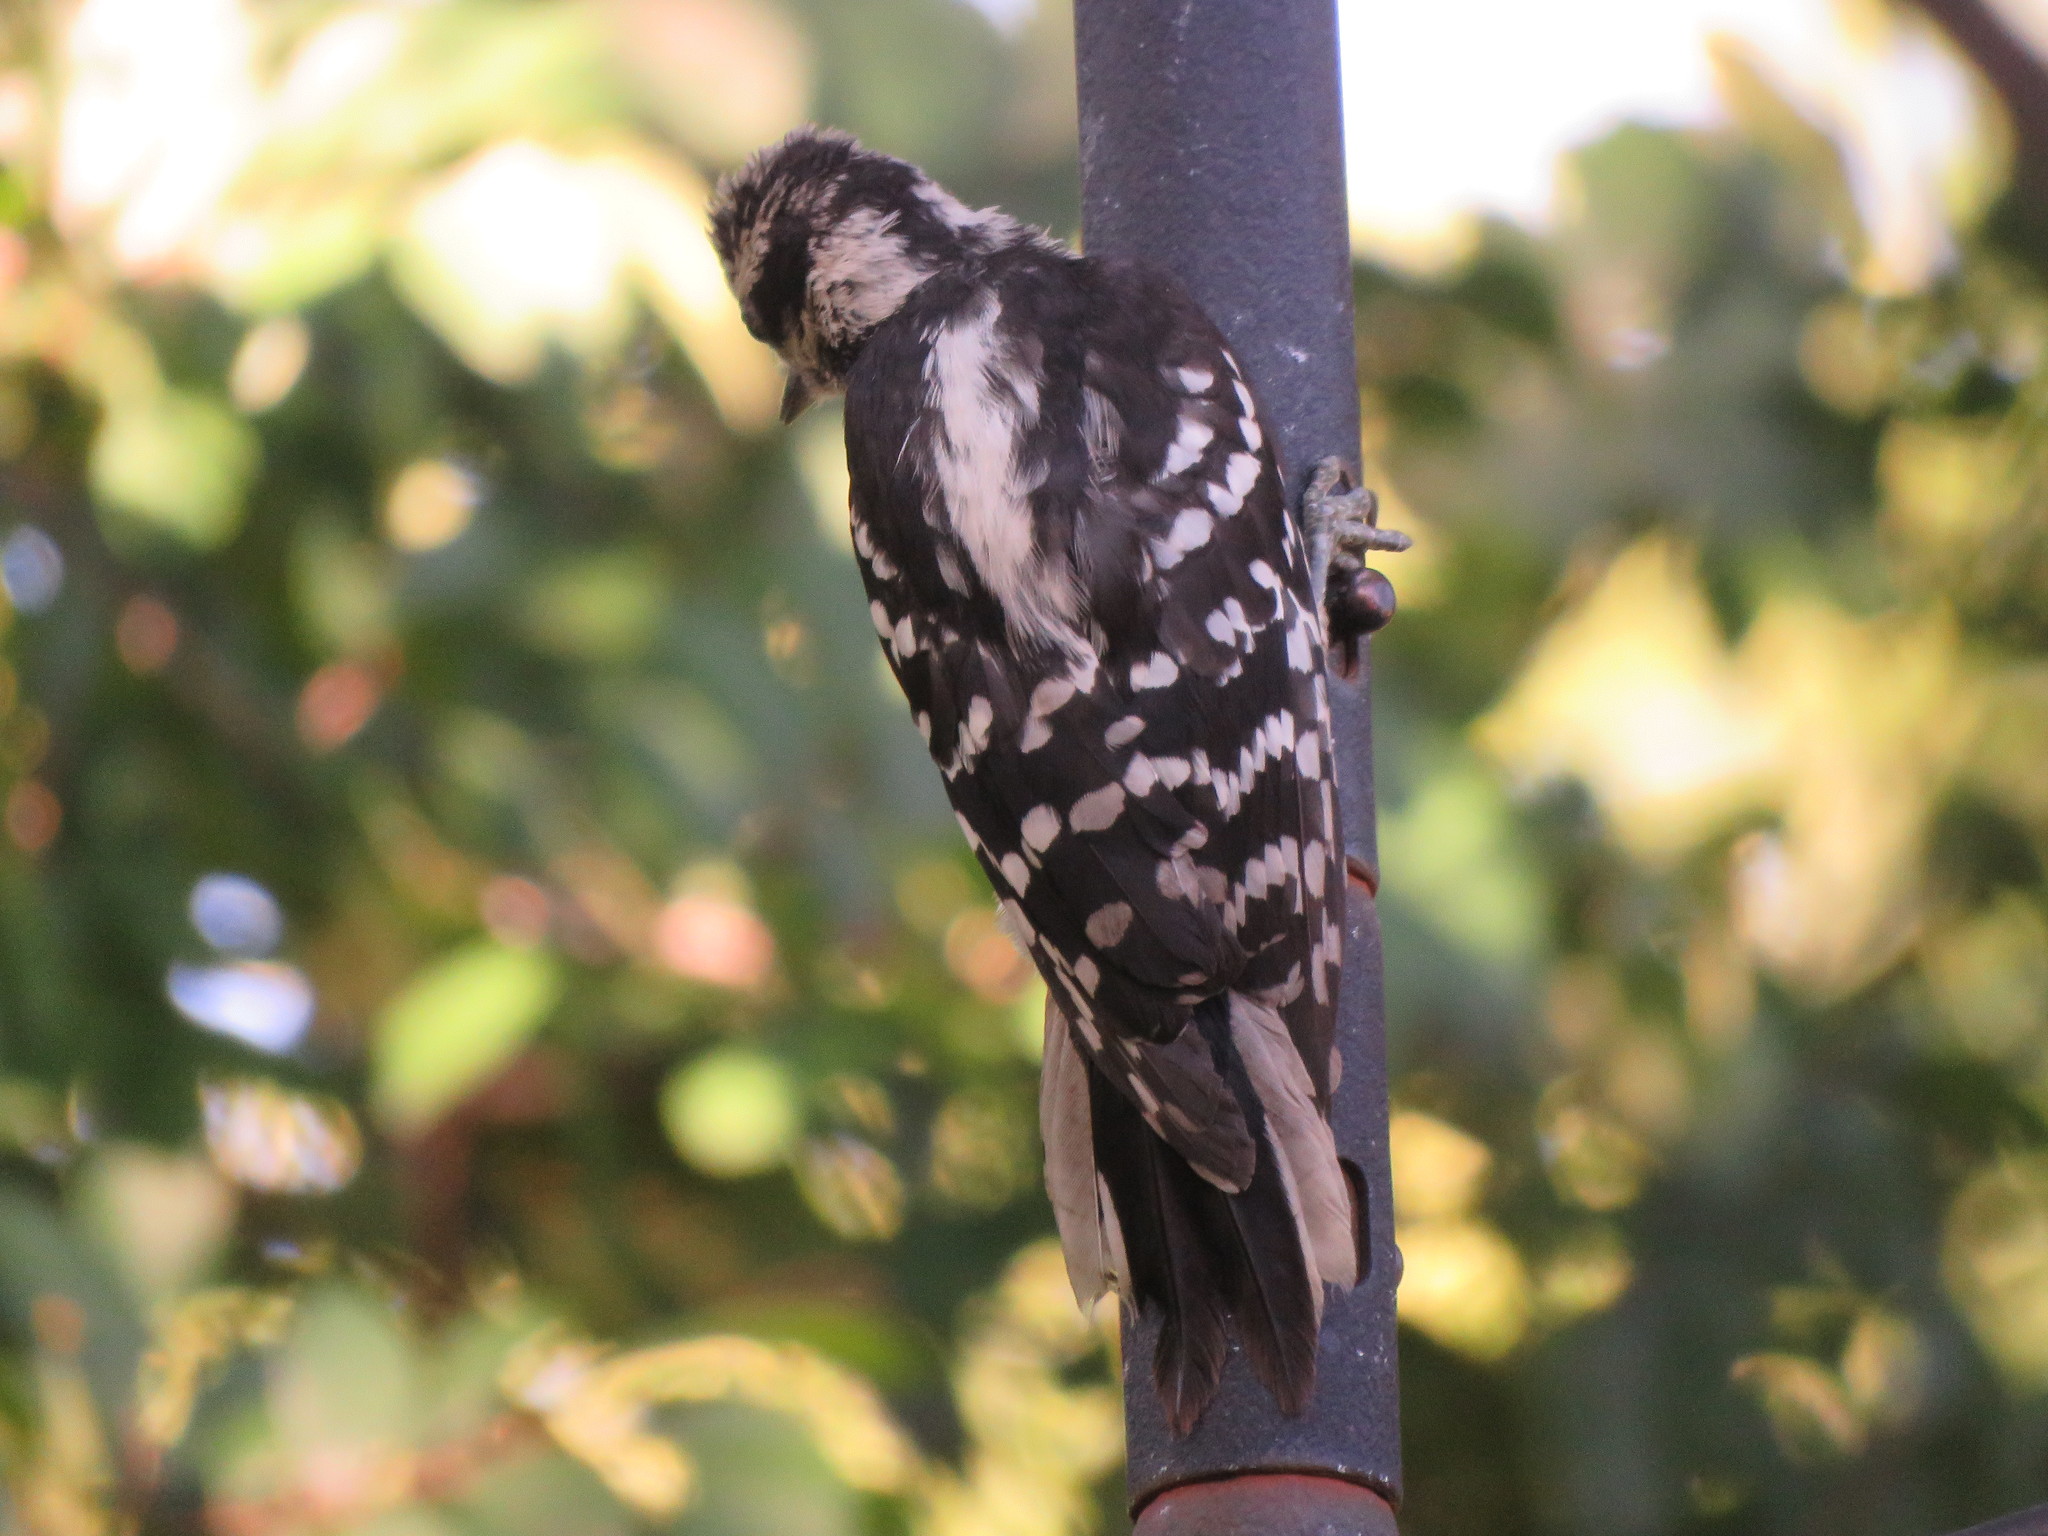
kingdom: Animalia
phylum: Chordata
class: Aves
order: Piciformes
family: Picidae
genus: Dryobates
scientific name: Dryobates pubescens
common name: Downy woodpecker
